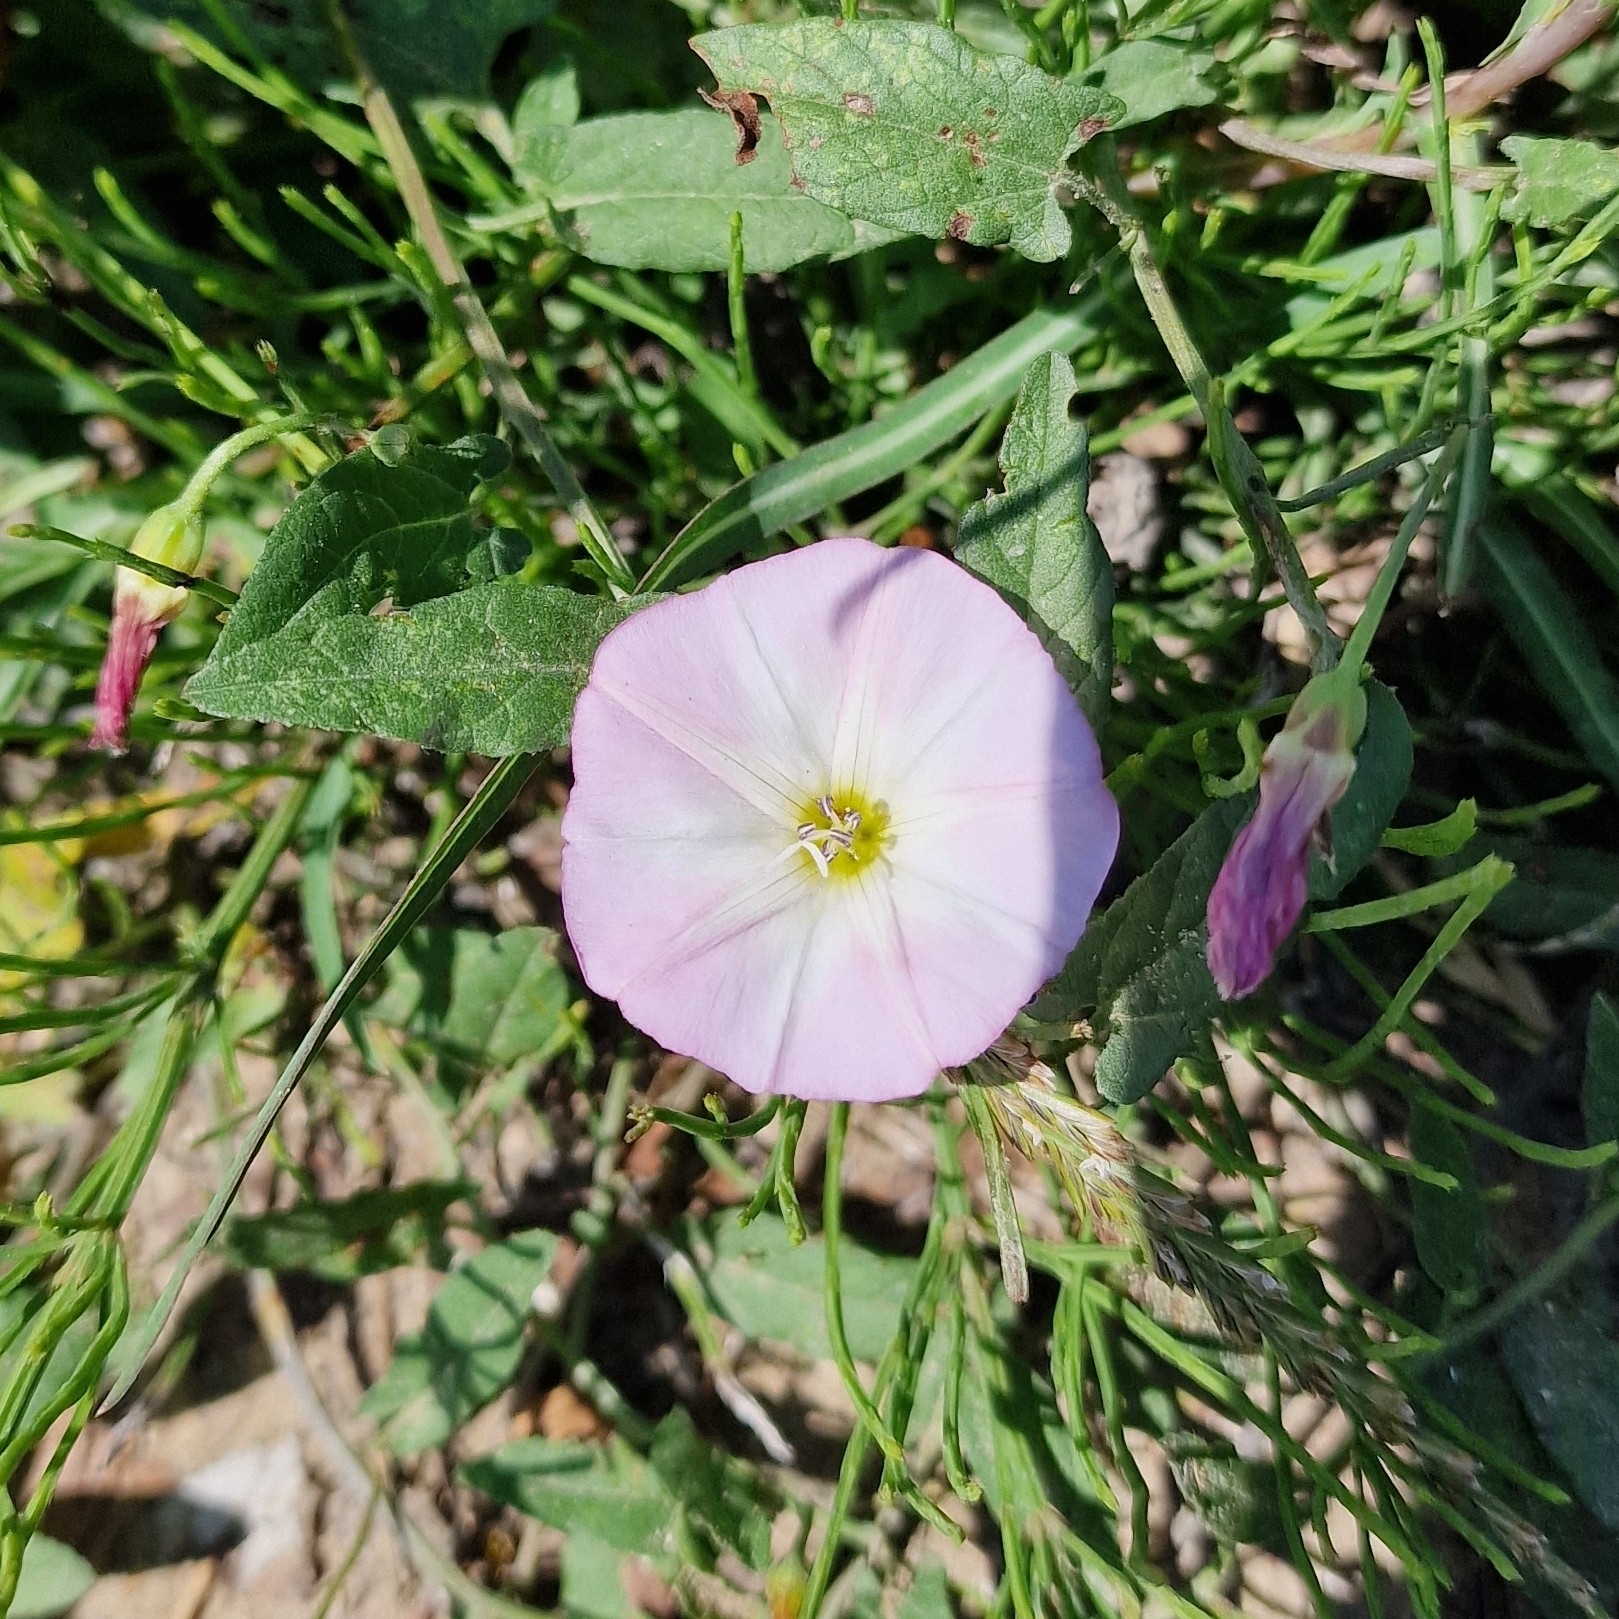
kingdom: Plantae
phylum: Tracheophyta
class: Magnoliopsida
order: Solanales
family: Convolvulaceae
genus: Convolvulus
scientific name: Convolvulus arvensis
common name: Field bindweed
